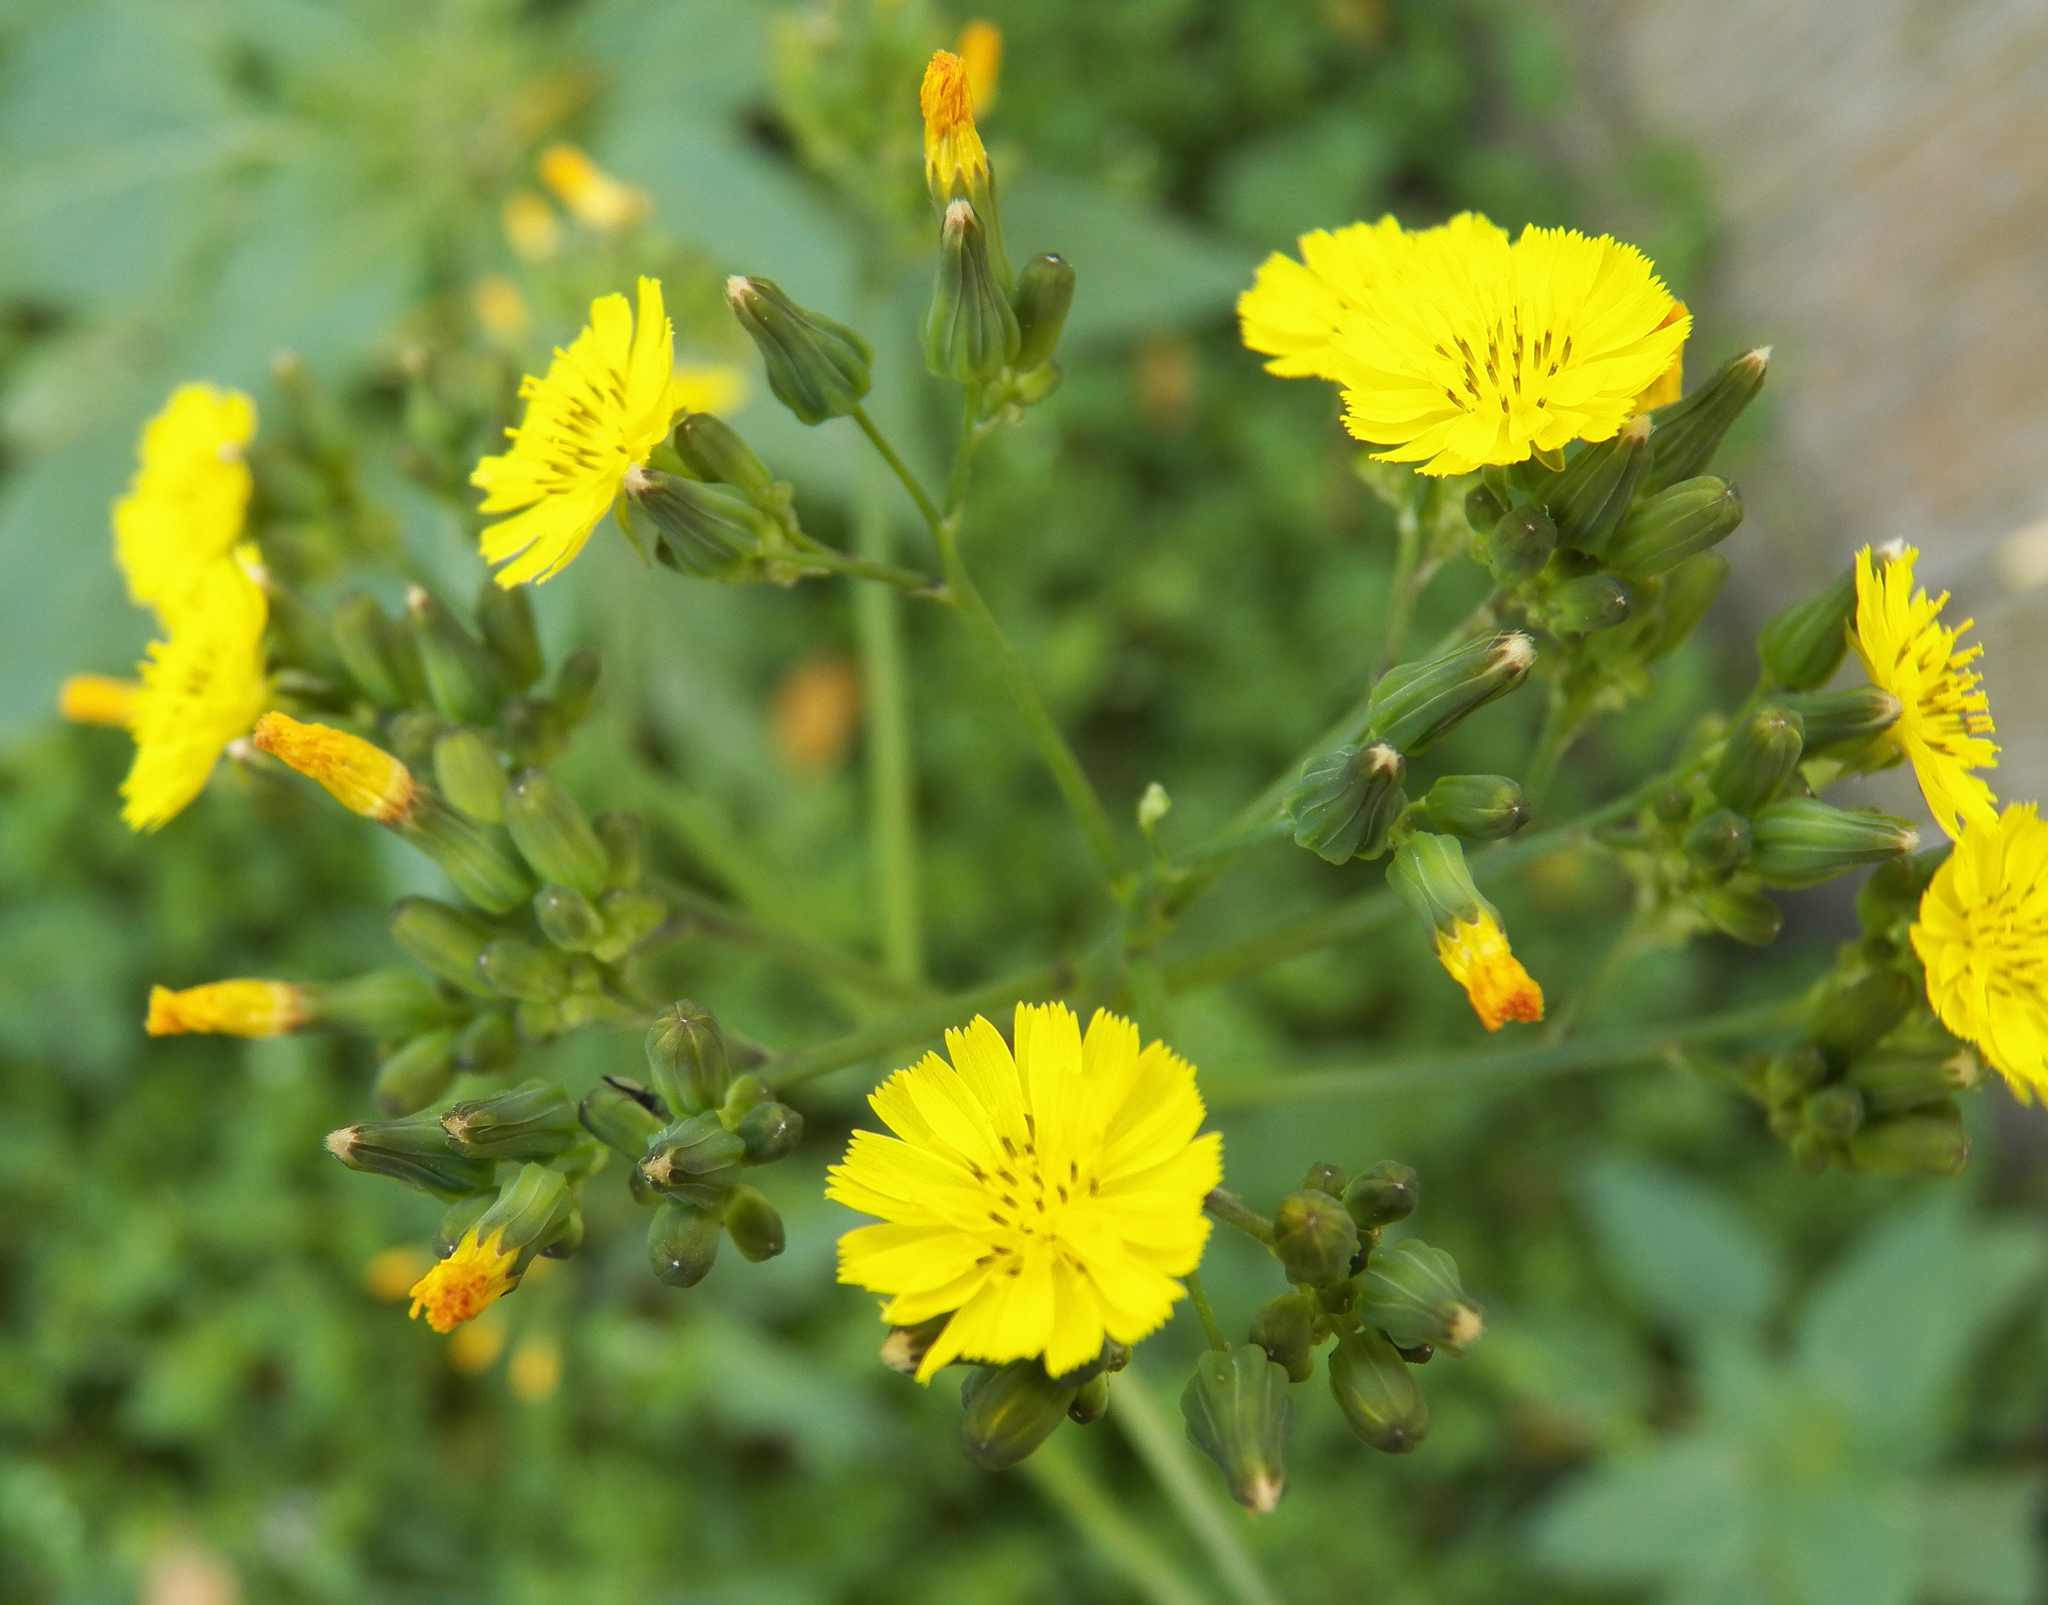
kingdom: Plantae
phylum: Tracheophyta
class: Magnoliopsida
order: Asterales
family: Asteraceae
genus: Youngia
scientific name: Youngia japonica
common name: Oriental false hawksbeard
